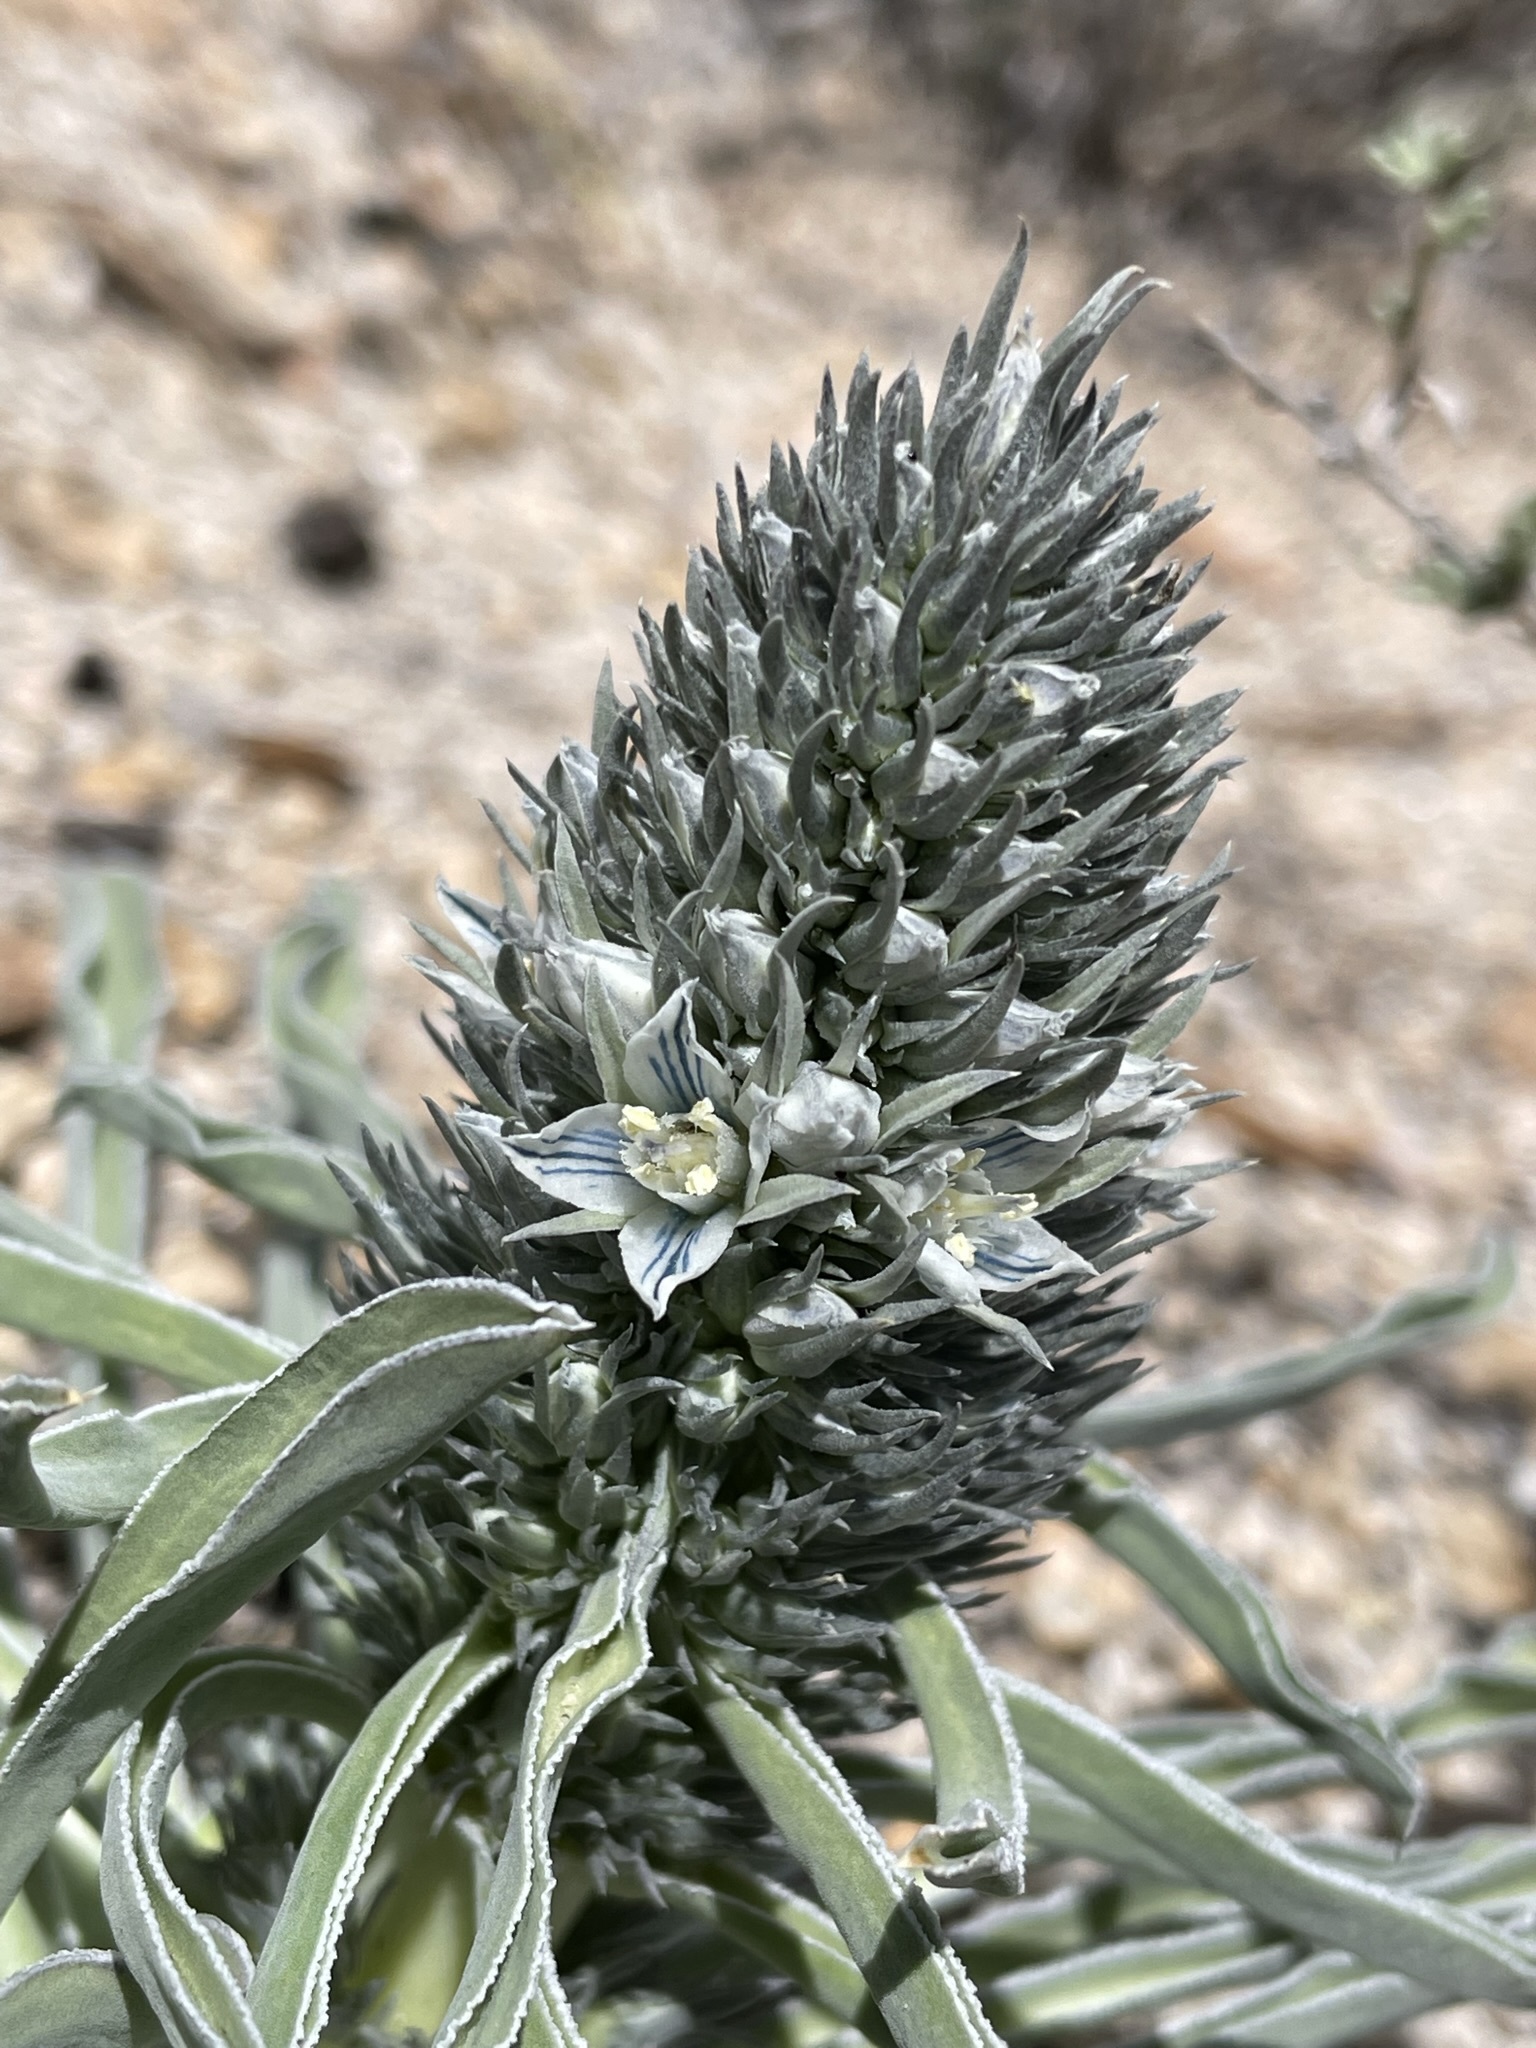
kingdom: Plantae
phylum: Tracheophyta
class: Magnoliopsida
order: Gentianales
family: Gentianaceae
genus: Frasera
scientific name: Frasera tubulosa
